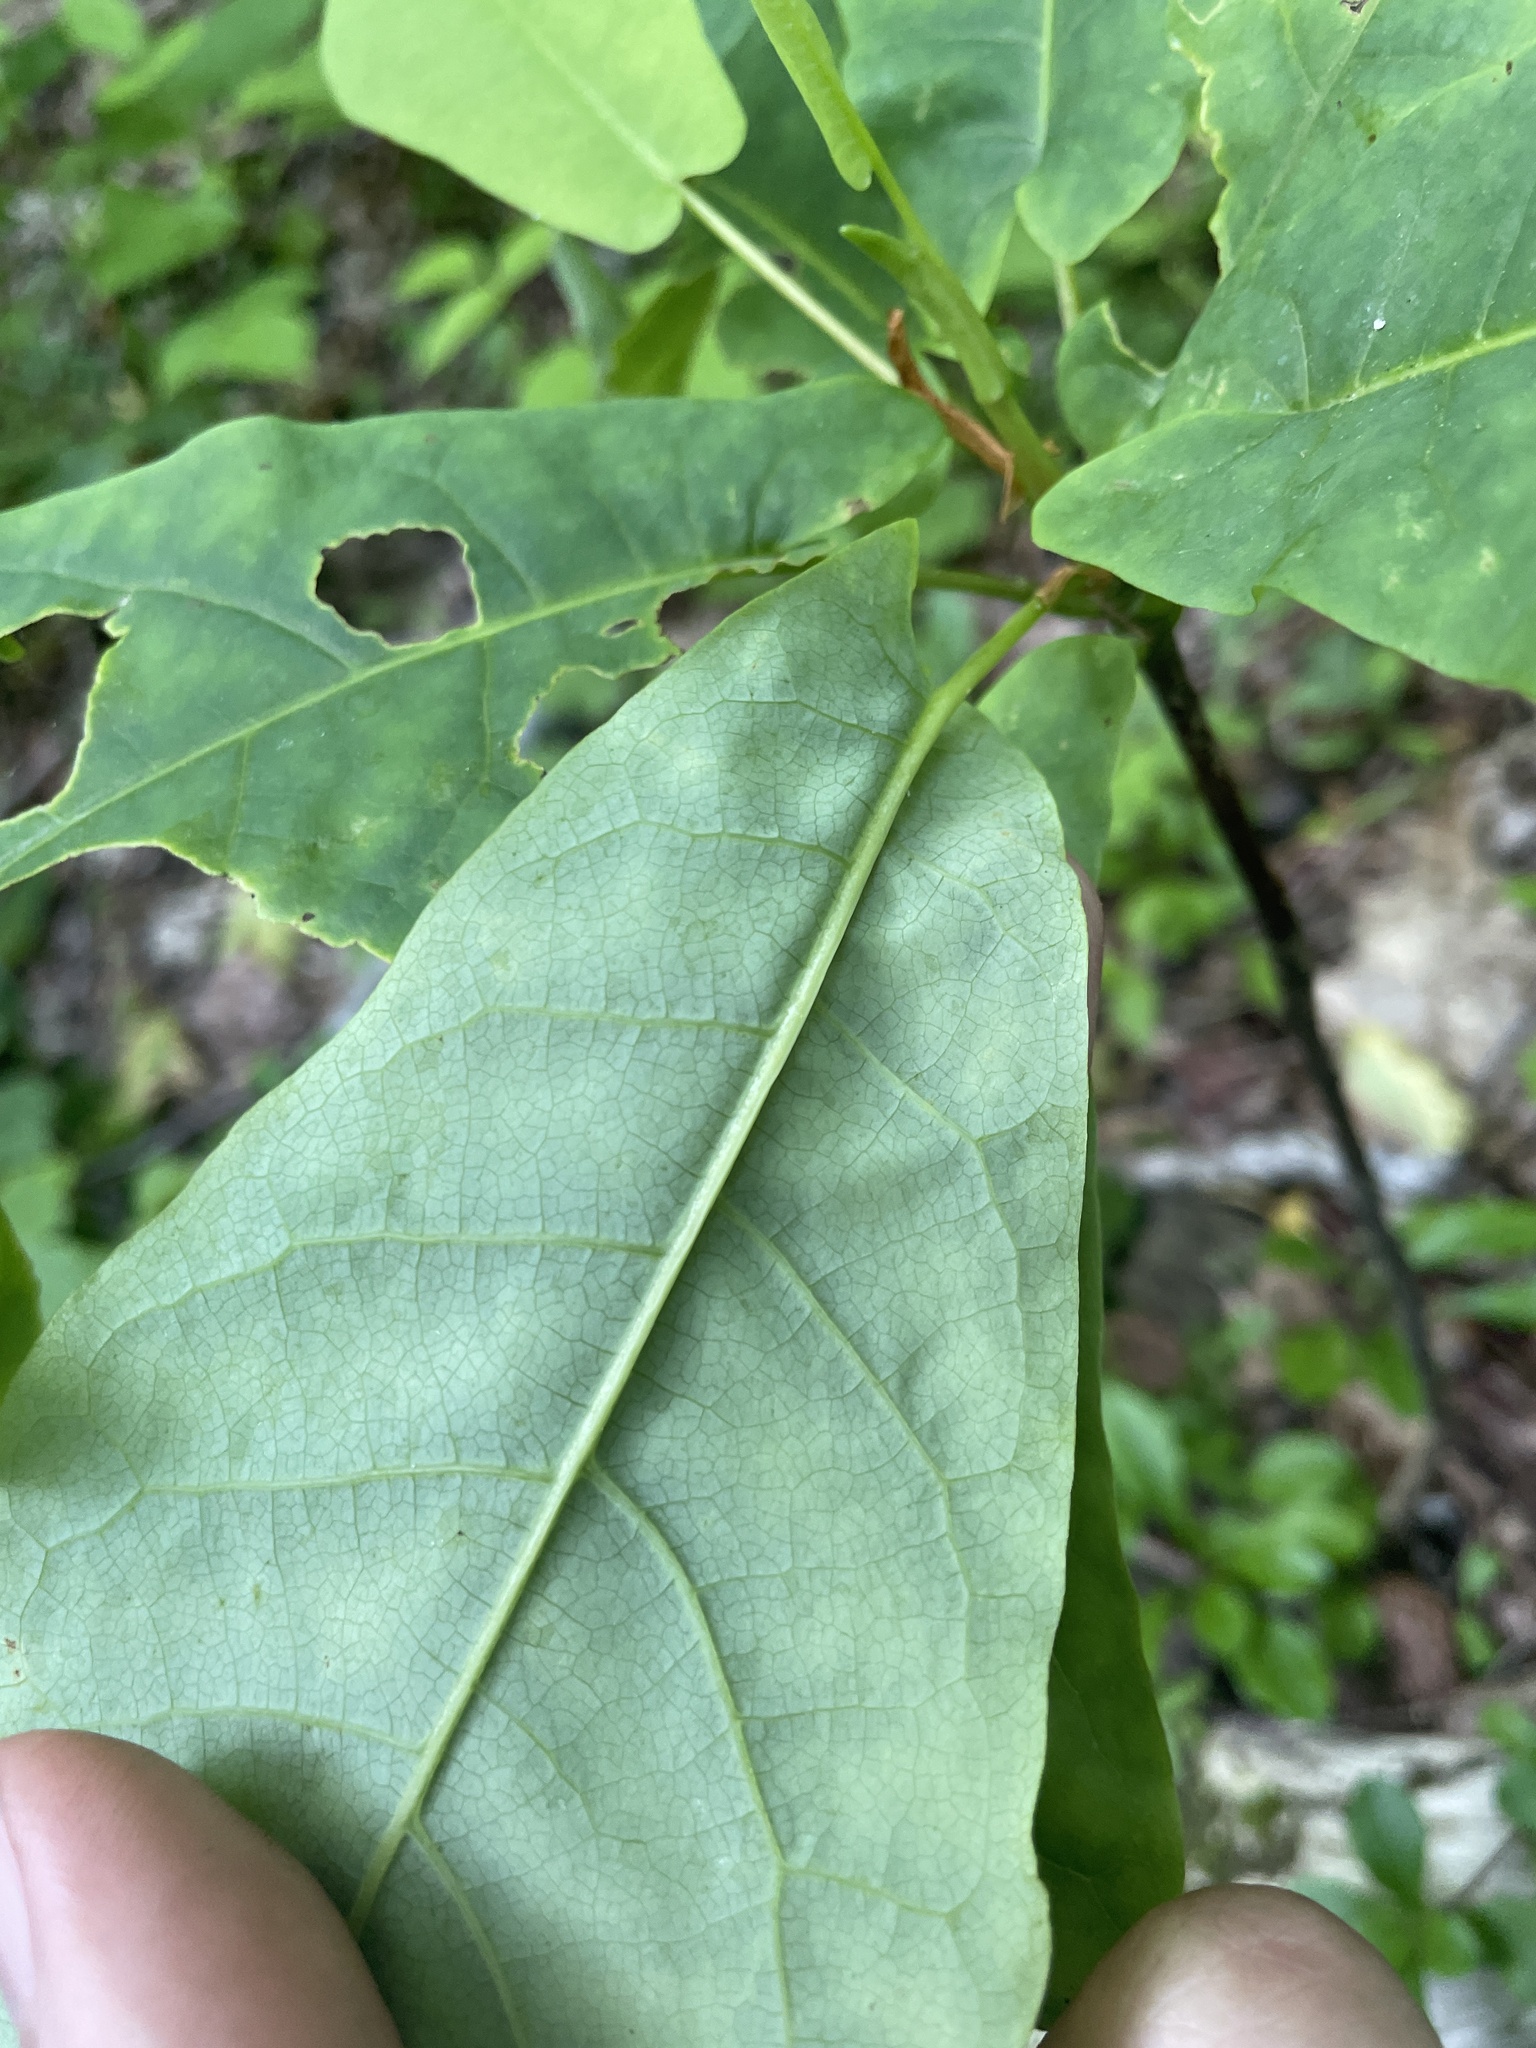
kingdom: Plantae
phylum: Tracheophyta
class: Magnoliopsida
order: Magnoliales
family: Magnoliaceae
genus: Magnolia
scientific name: Magnolia fraseri
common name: Fraser's magnolia
